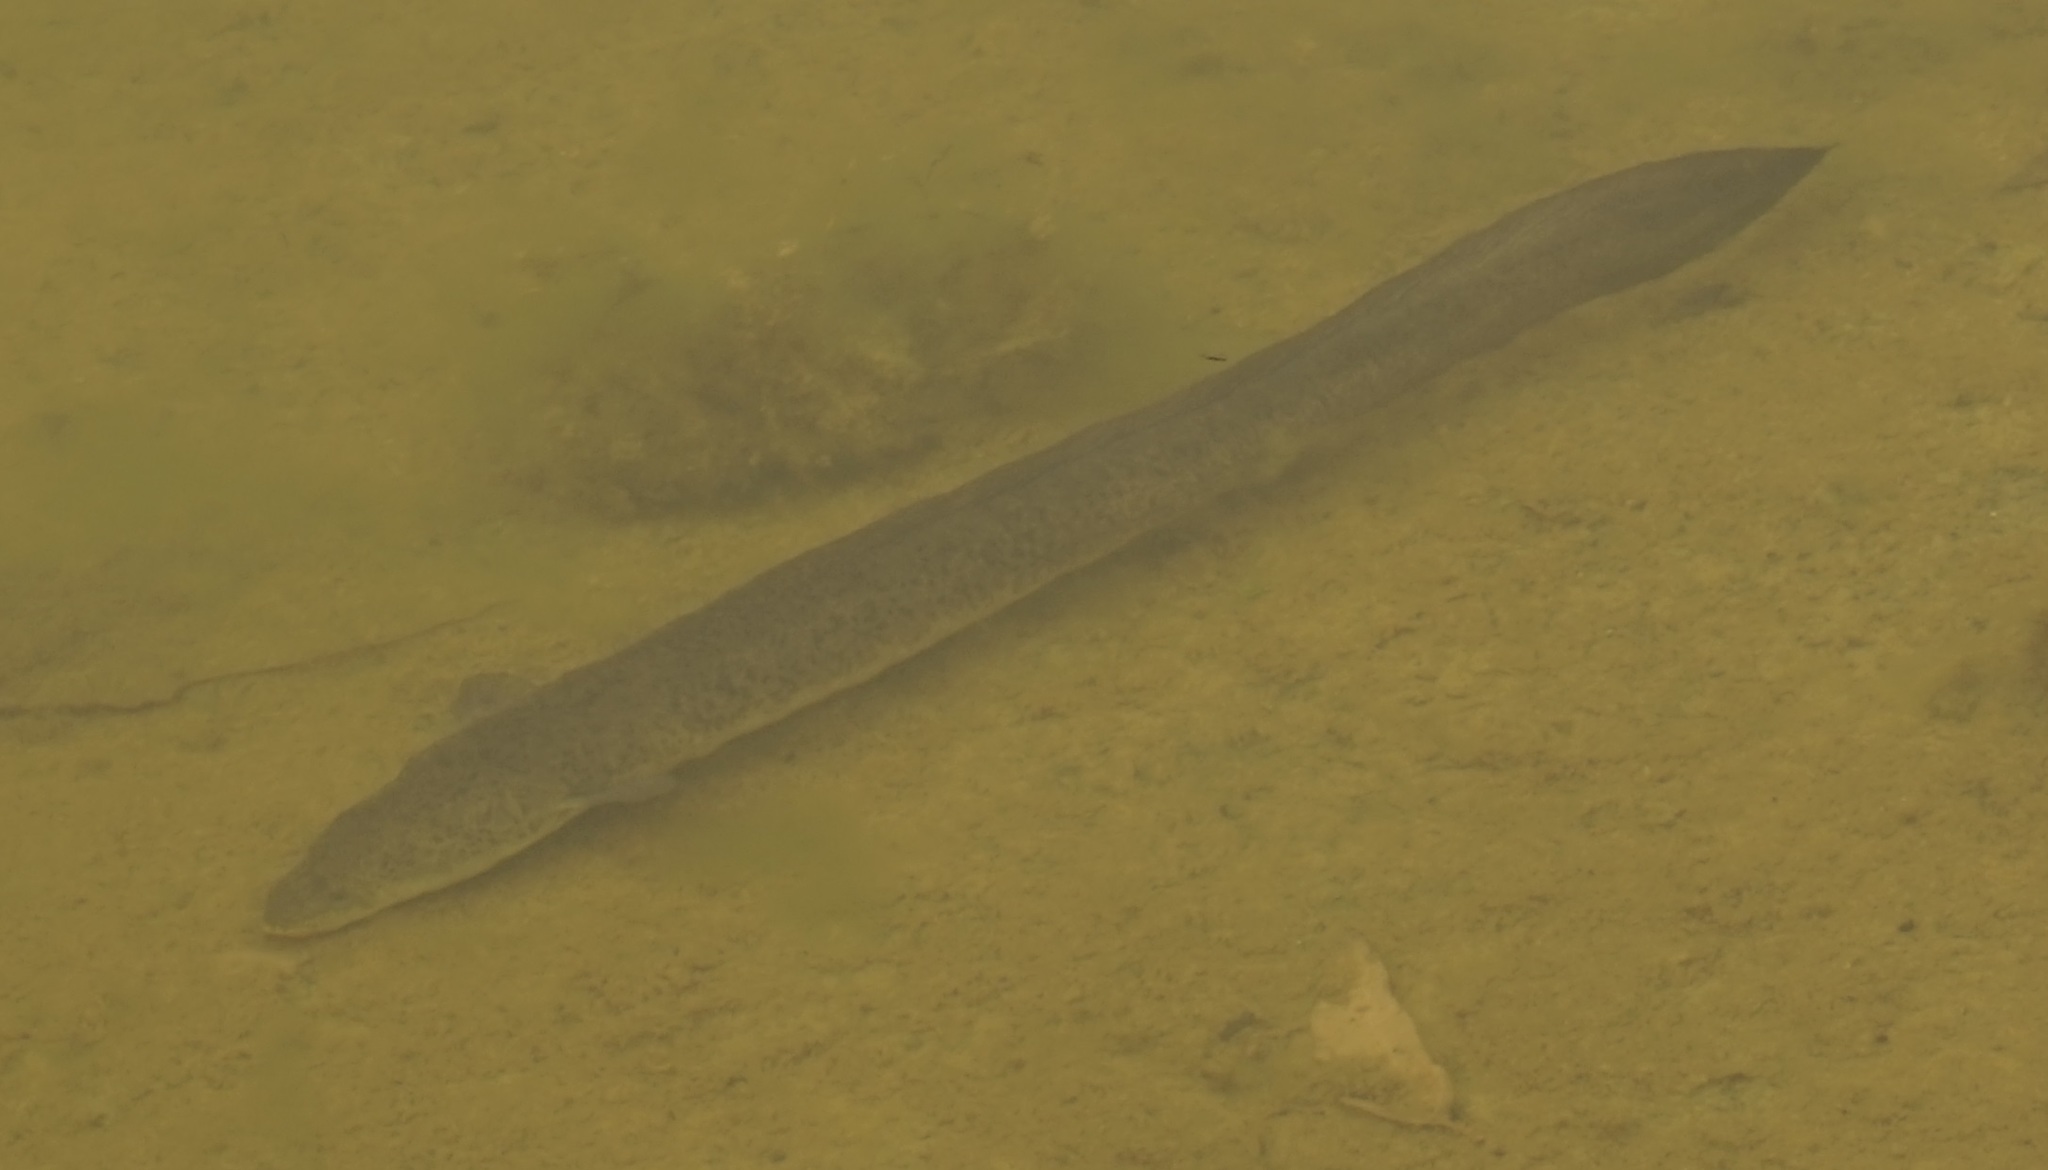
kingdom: Animalia
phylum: Chordata
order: Anguilliformes
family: Anguillidae
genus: Anguilla
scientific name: Anguilla reinhardtii
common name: Longfin eel
